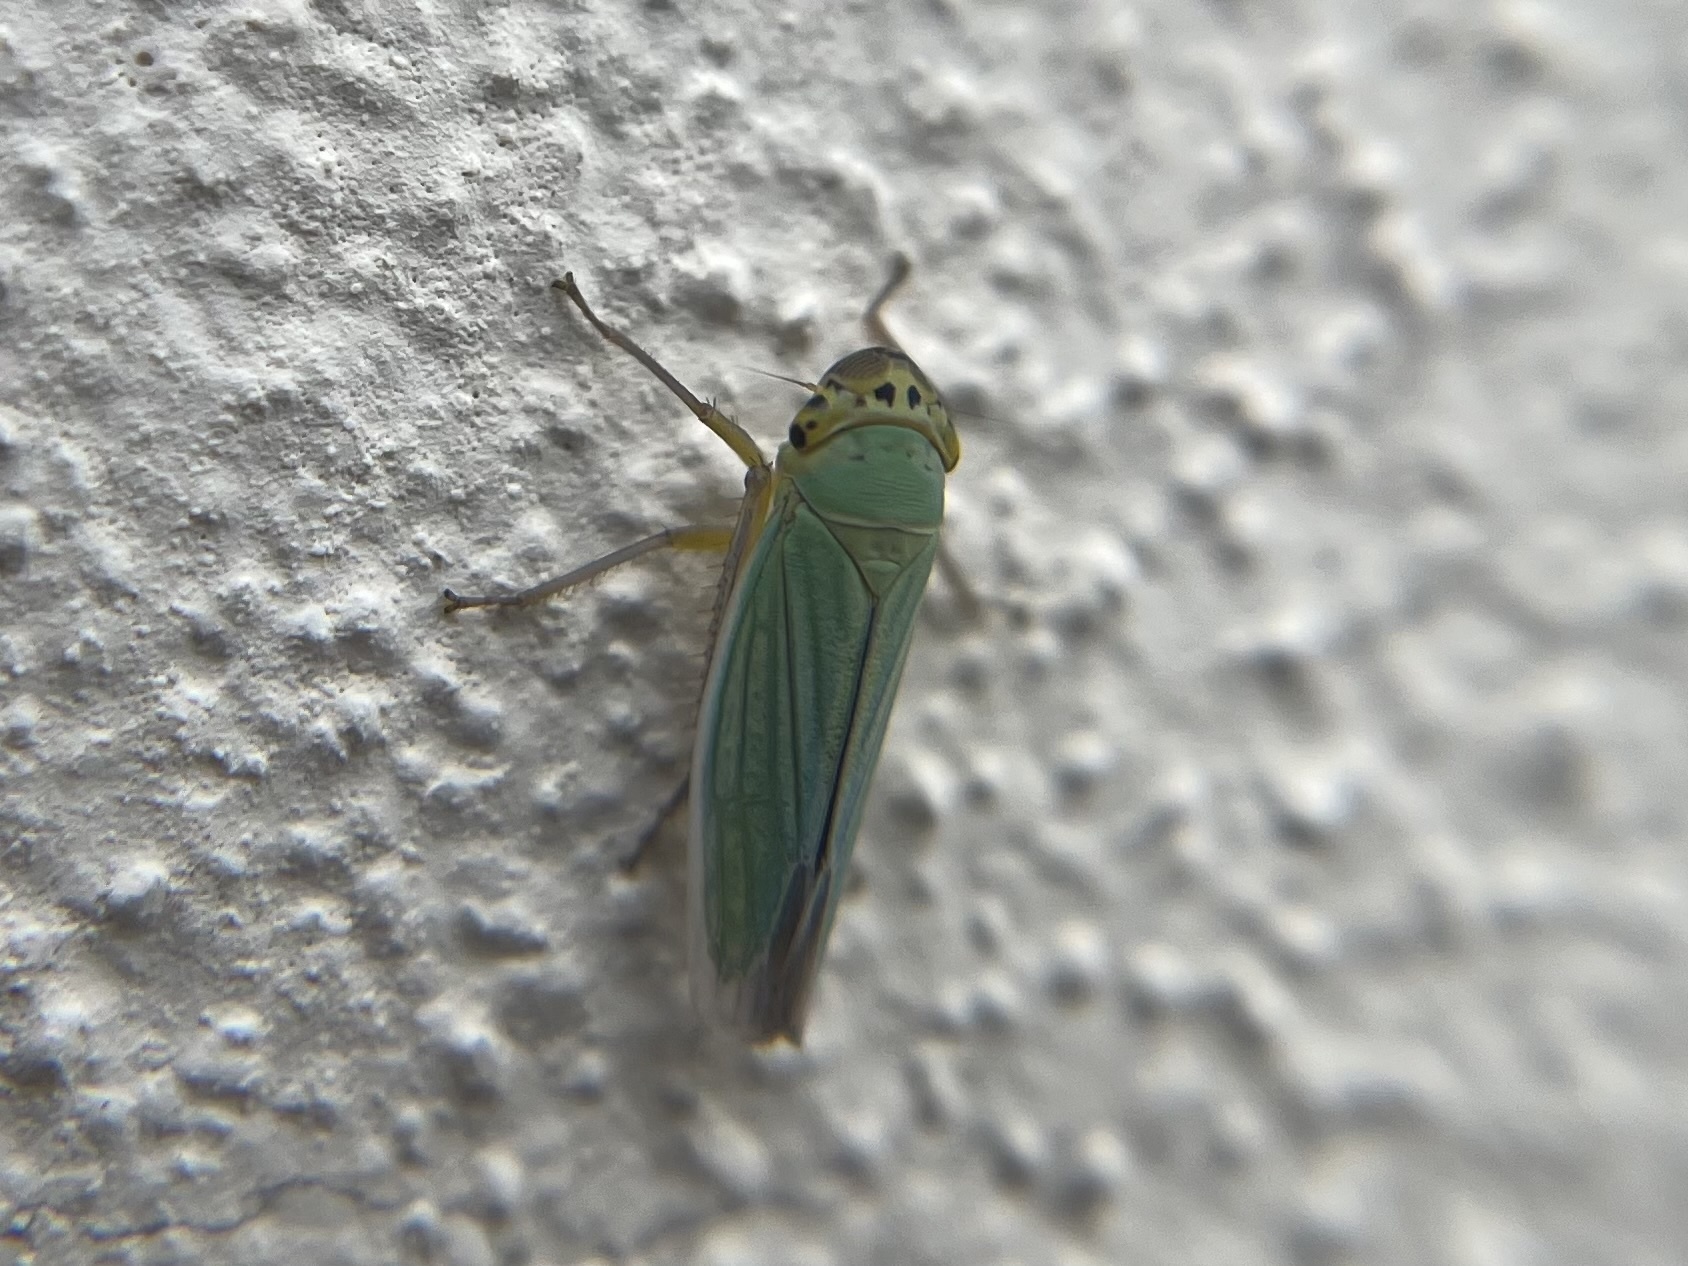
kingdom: Animalia
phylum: Arthropoda
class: Insecta
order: Hemiptera
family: Cicadellidae
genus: Cicadella
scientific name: Cicadella viridis
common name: Leafhopper
